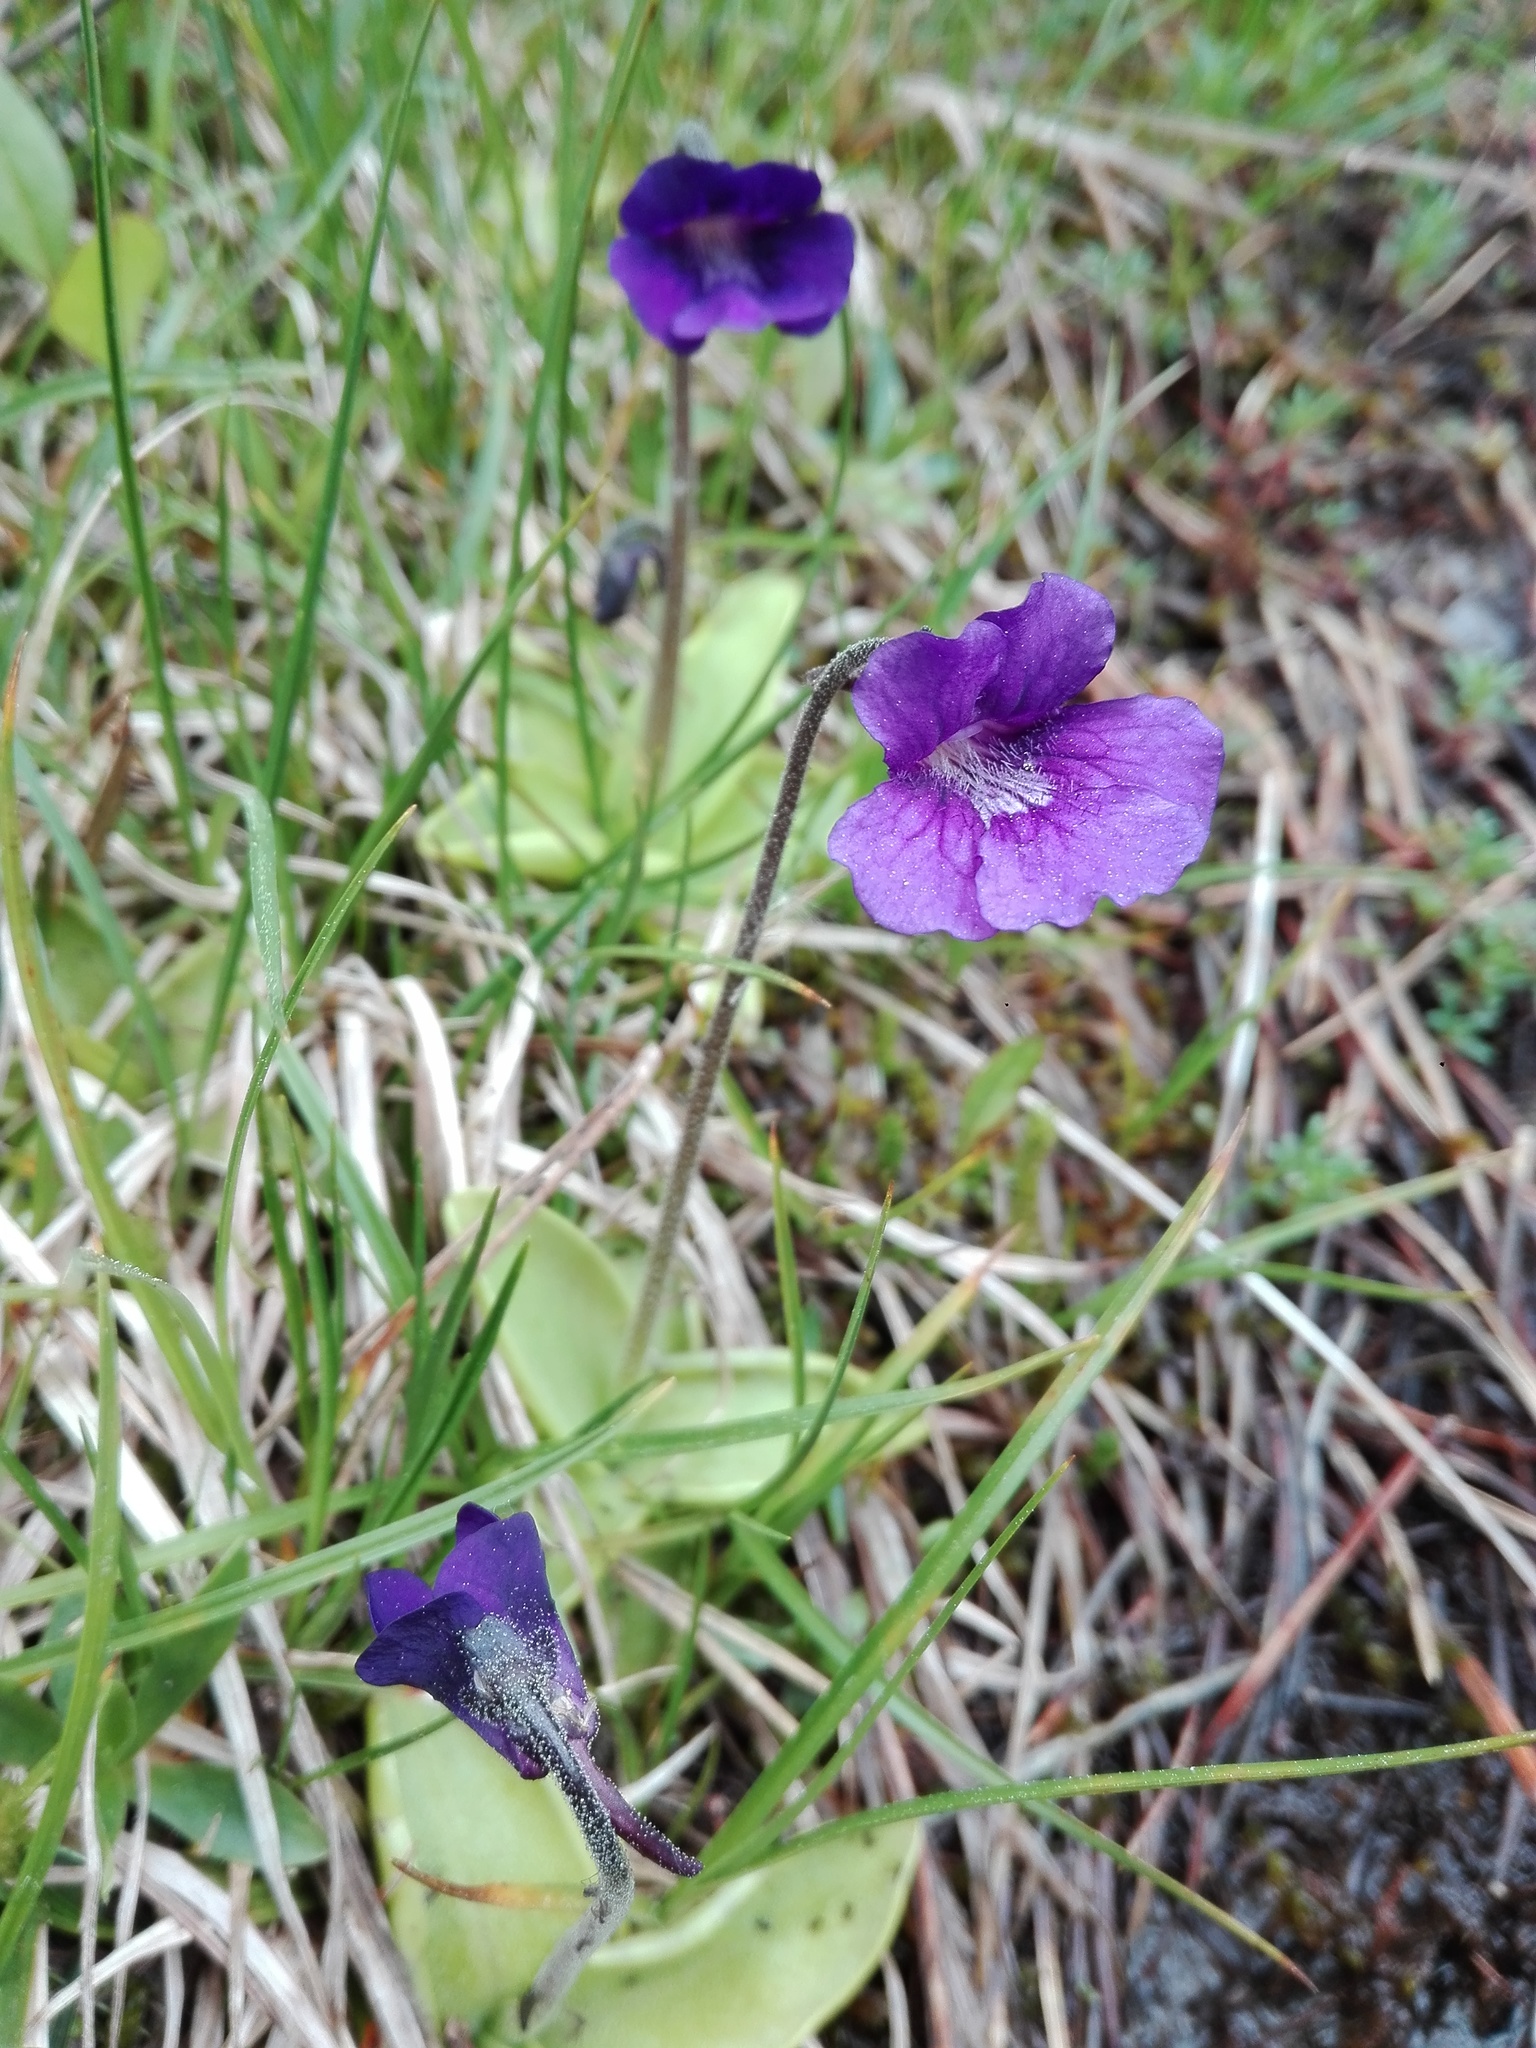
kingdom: Plantae
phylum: Tracheophyta
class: Magnoliopsida
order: Lamiales
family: Lentibulariaceae
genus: Pinguicula
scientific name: Pinguicula grandiflora
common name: Large-flowered butterwort
